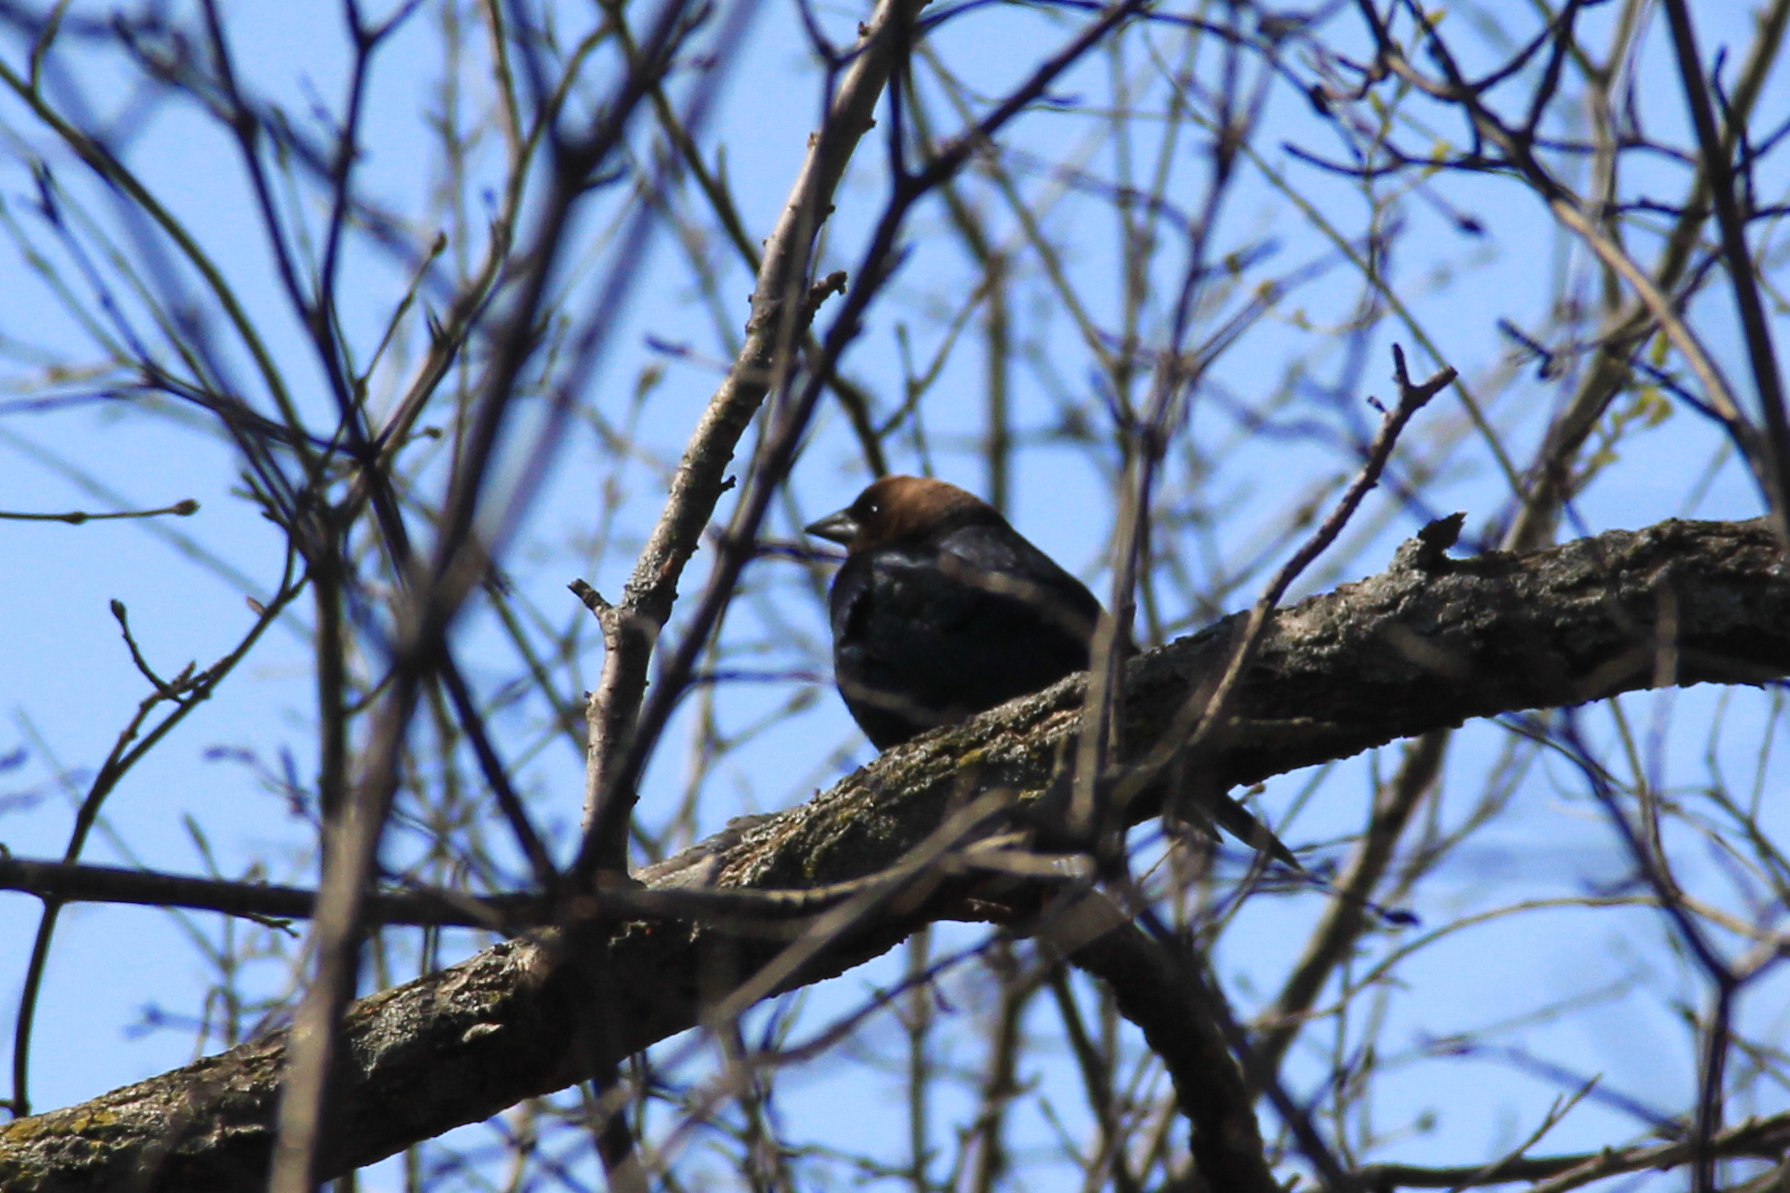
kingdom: Animalia
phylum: Chordata
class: Aves
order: Passeriformes
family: Icteridae
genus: Molothrus
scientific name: Molothrus ater
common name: Brown-headed cowbird
